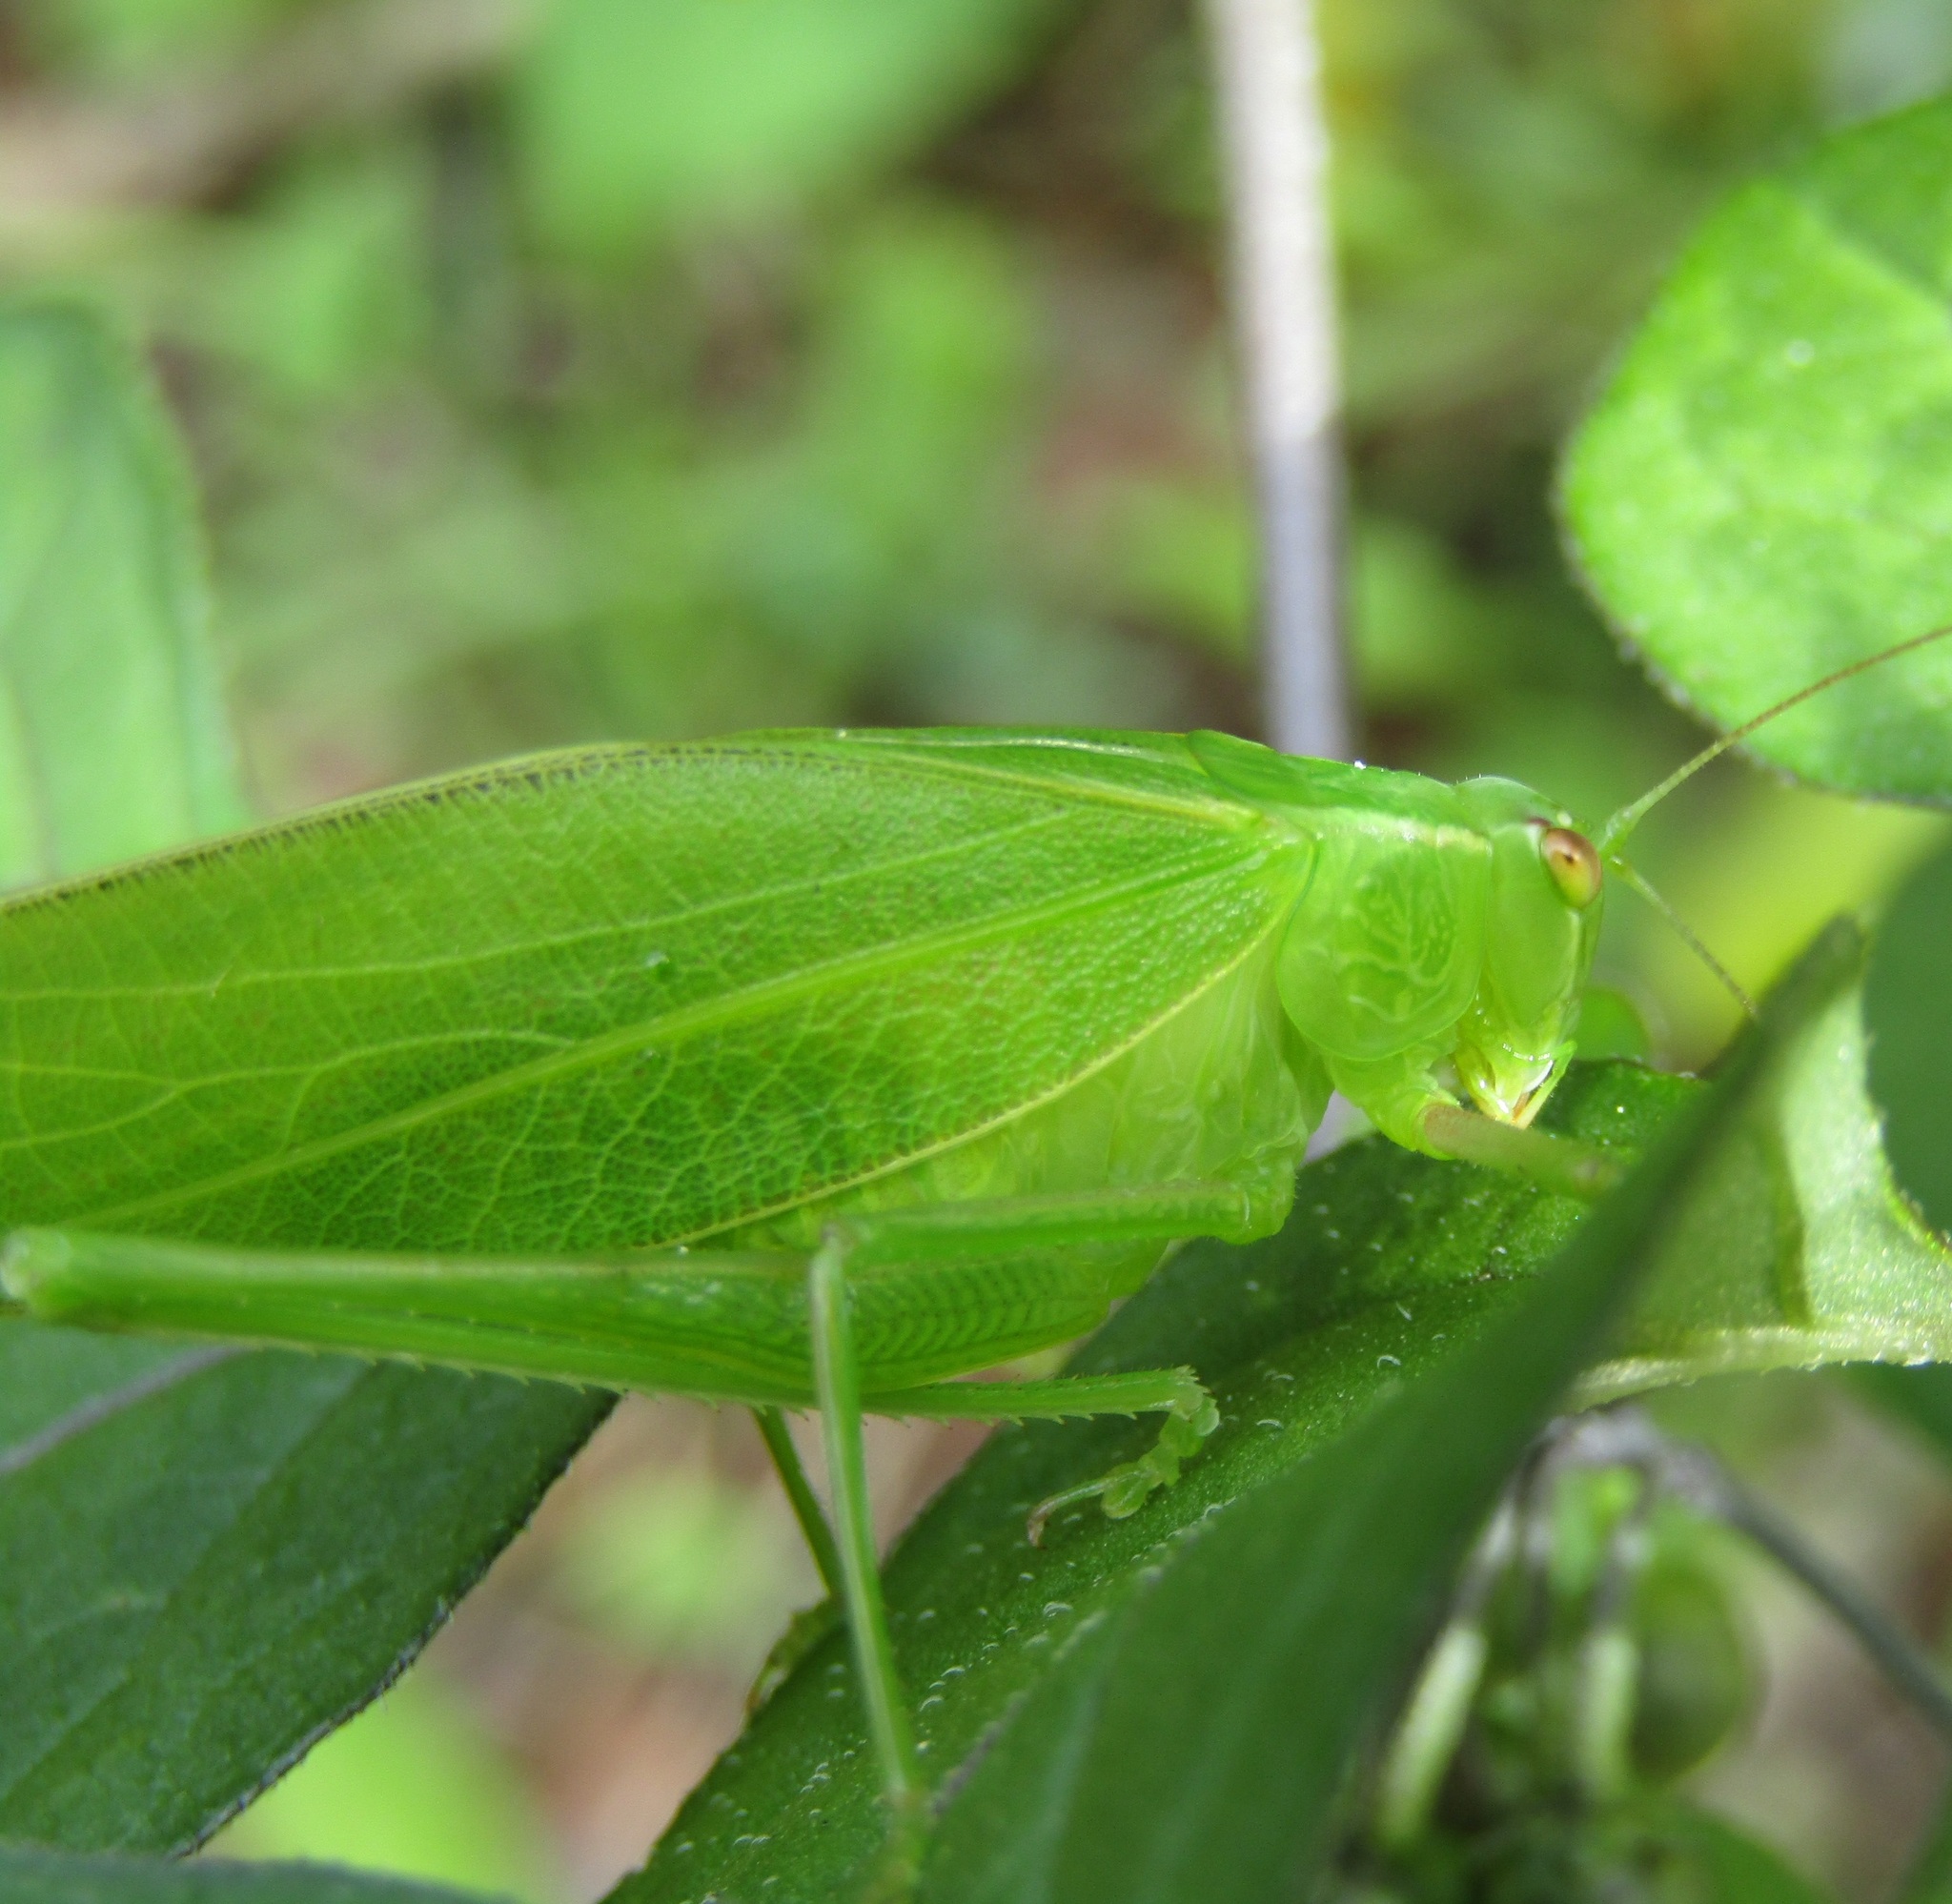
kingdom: Animalia
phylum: Arthropoda
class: Insecta
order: Orthoptera
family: Tettigoniidae
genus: Caedicia
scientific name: Caedicia simplex
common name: Common garden katydid
